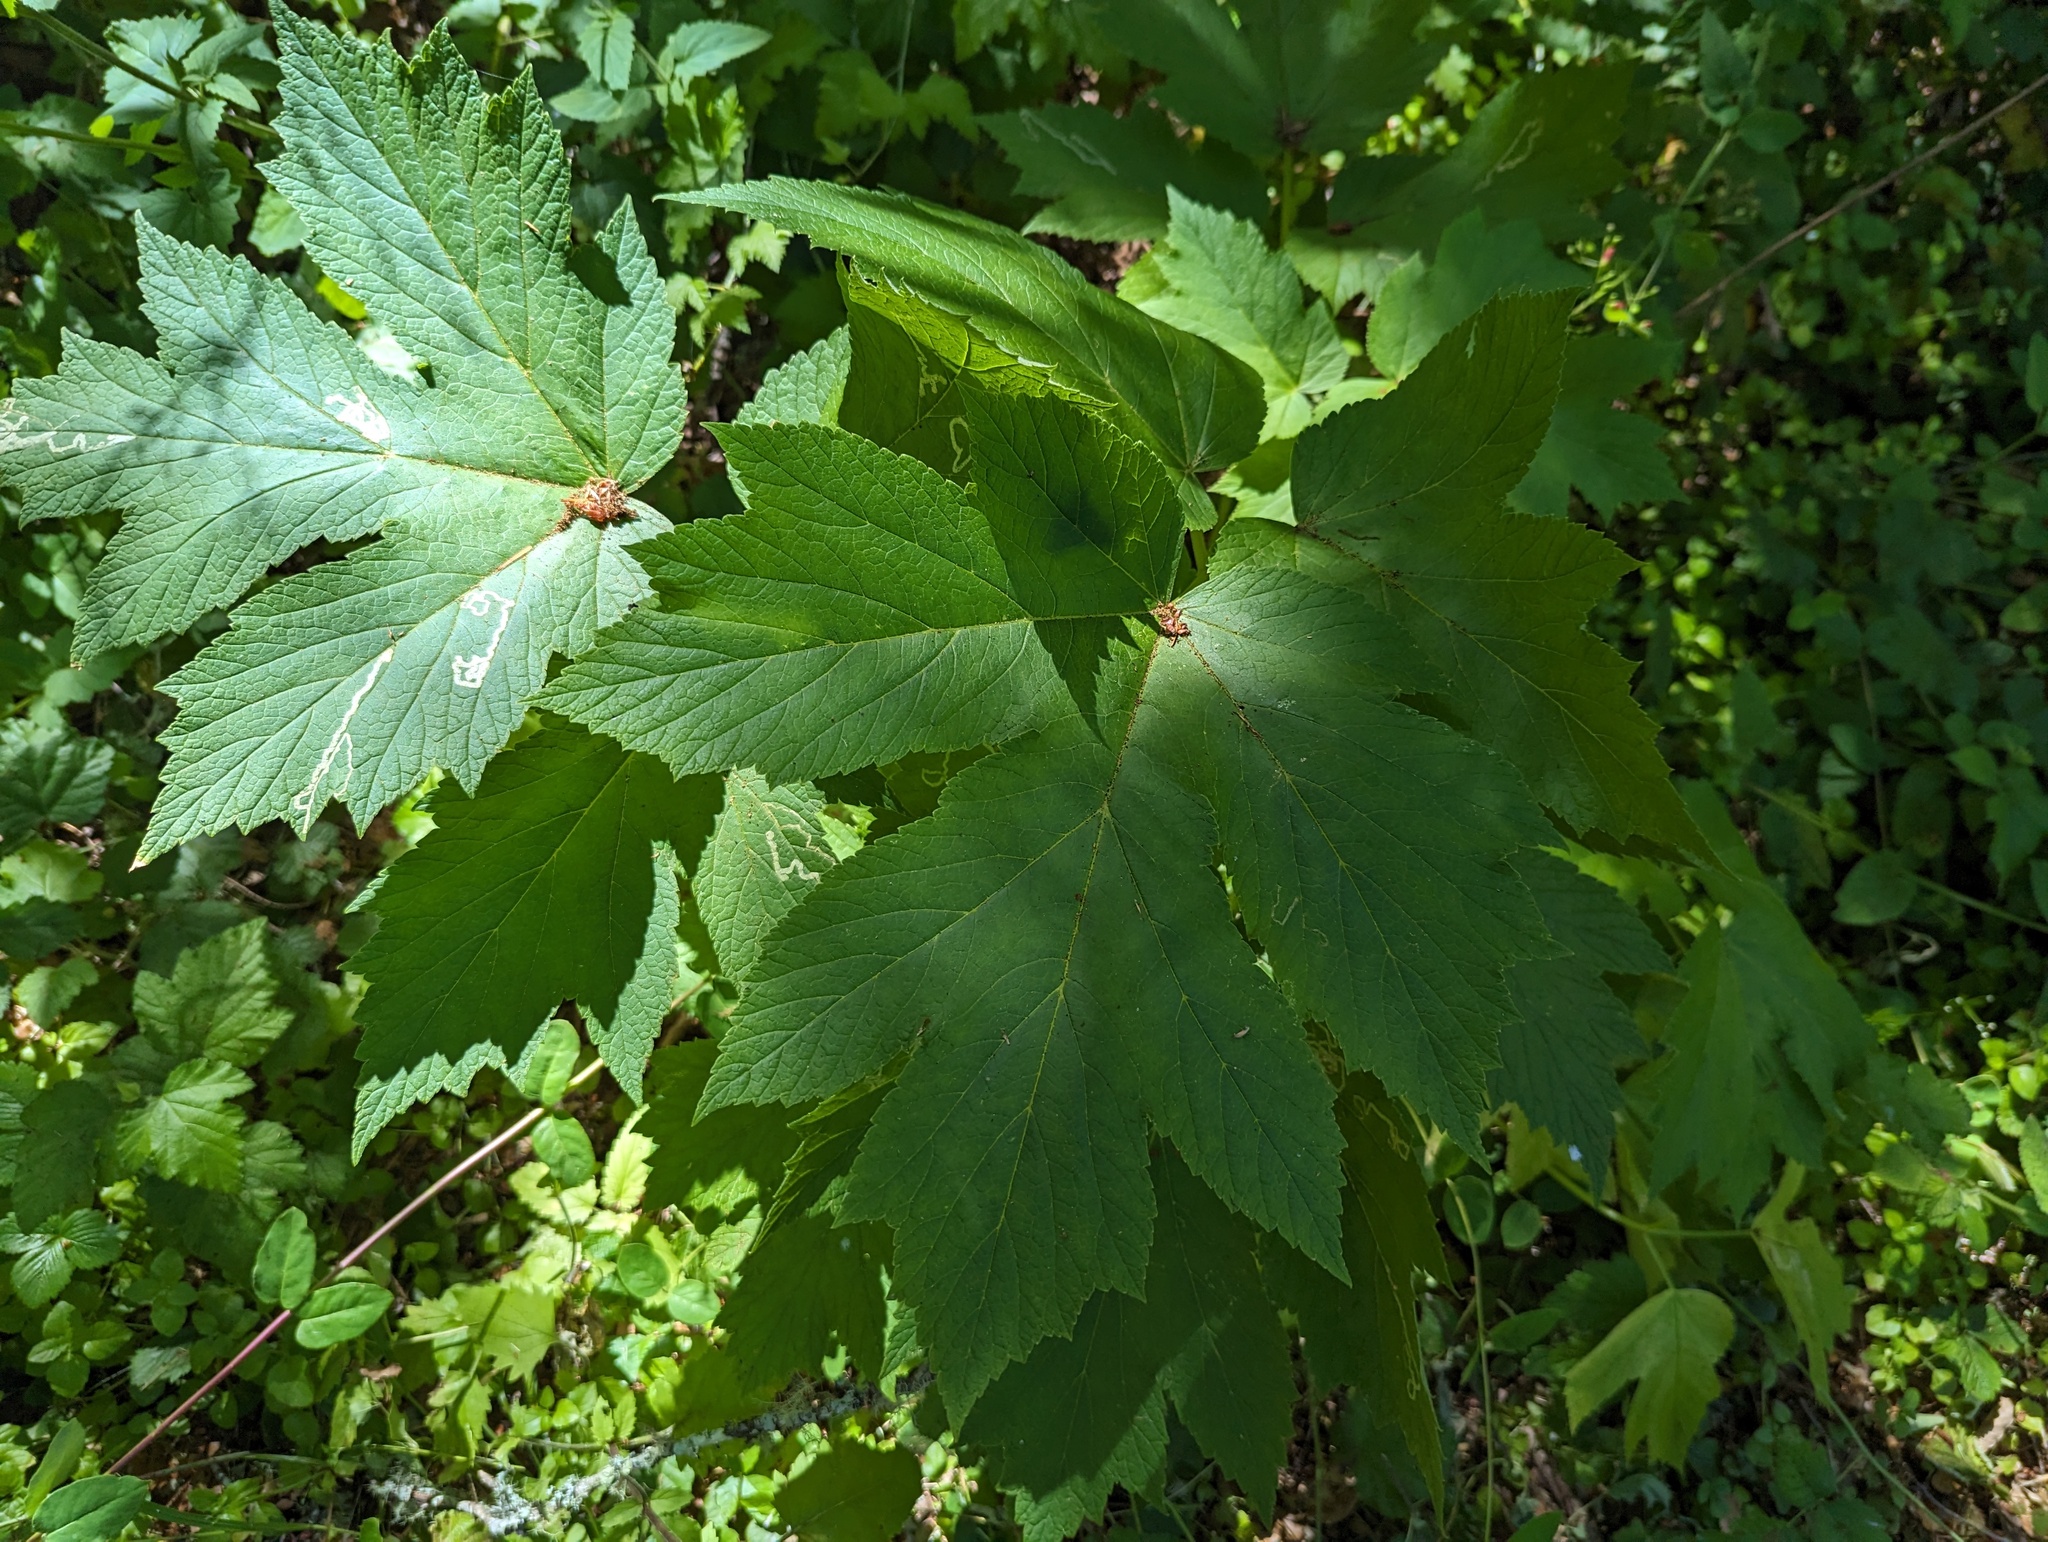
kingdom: Plantae
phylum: Tracheophyta
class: Magnoliopsida
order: Apiales
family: Apiaceae
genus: Heracleum
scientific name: Heracleum maximum
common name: American cow parsnip
